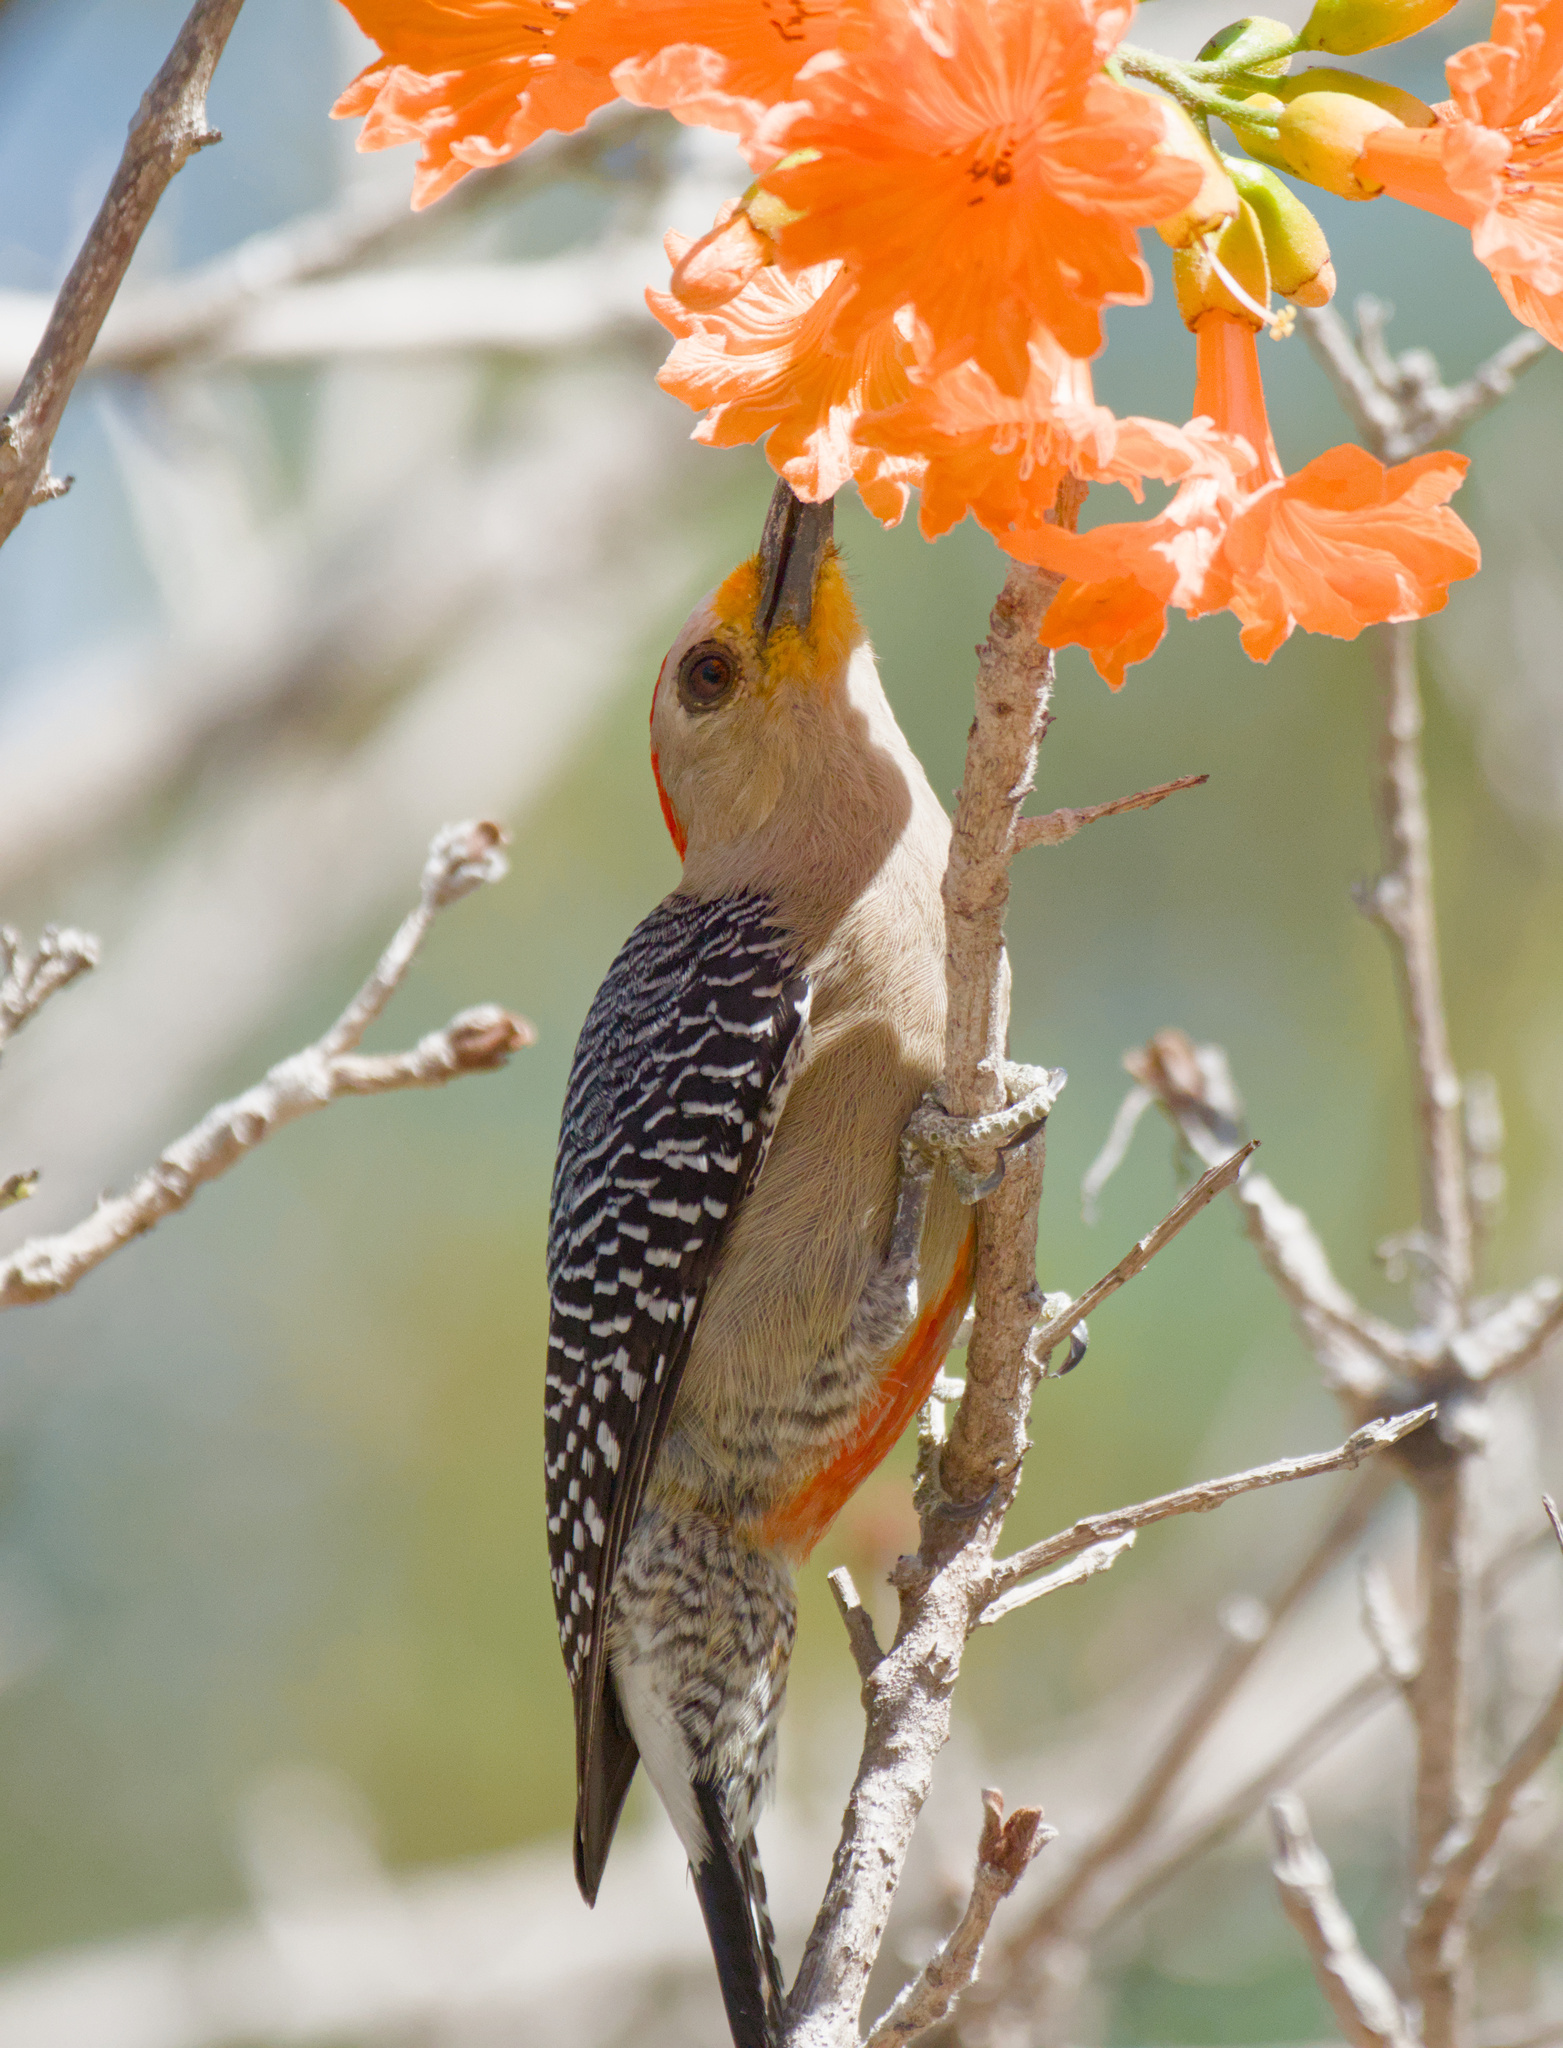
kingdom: Animalia
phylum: Chordata
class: Aves
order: Piciformes
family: Picidae
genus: Melanerpes
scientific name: Melanerpes pygmaeus
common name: Yucatan woodpecker
